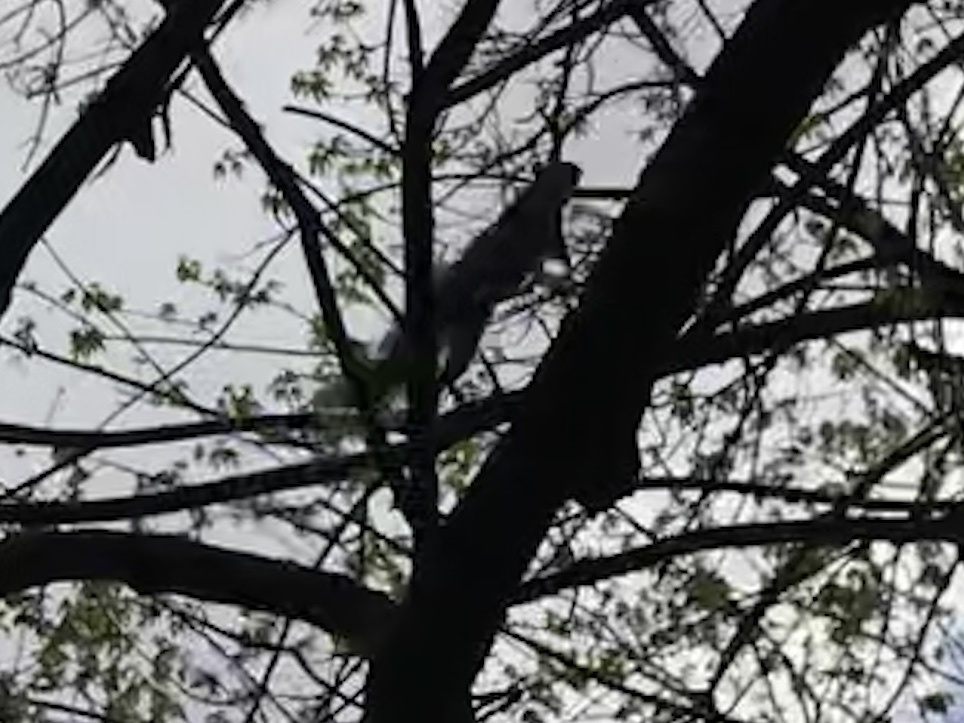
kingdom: Animalia
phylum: Chordata
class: Mammalia
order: Rodentia
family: Sciuridae
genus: Sciurus
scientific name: Sciurus carolinensis
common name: Eastern gray squirrel
